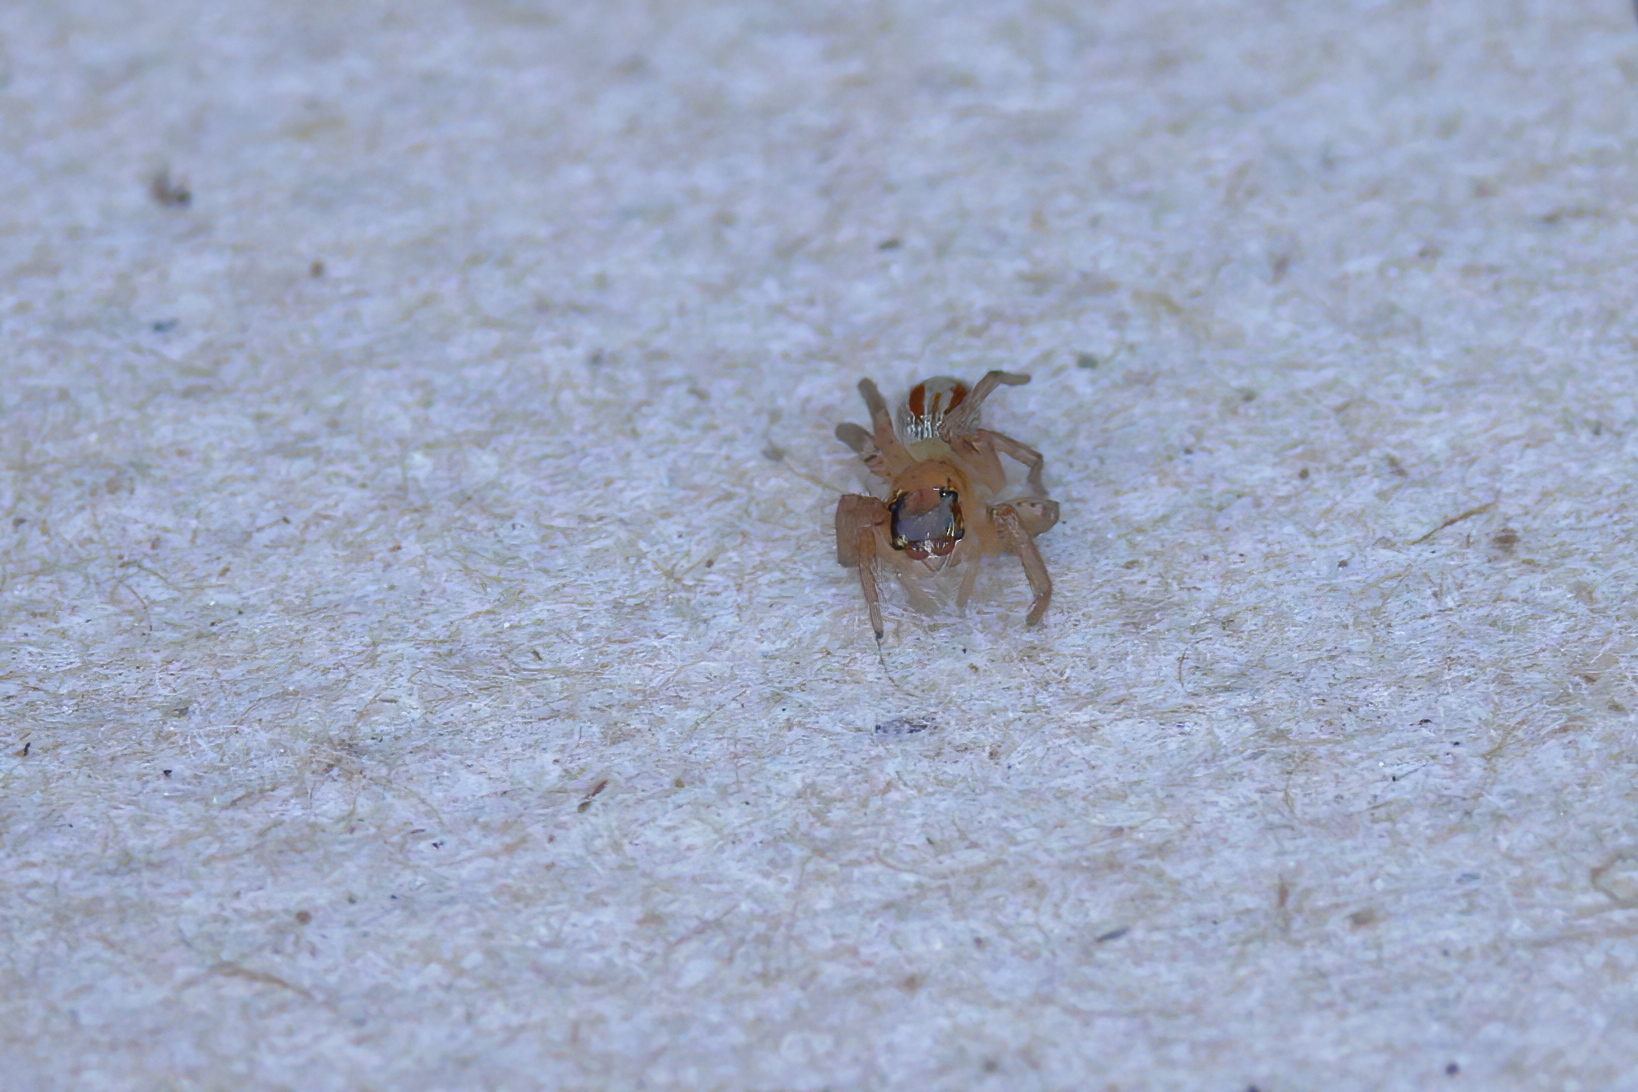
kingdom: Animalia
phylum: Arthropoda
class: Arachnida
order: Araneae
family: Salticidae
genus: Maevia
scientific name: Maevia inclemens
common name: Dimorphic jumper
